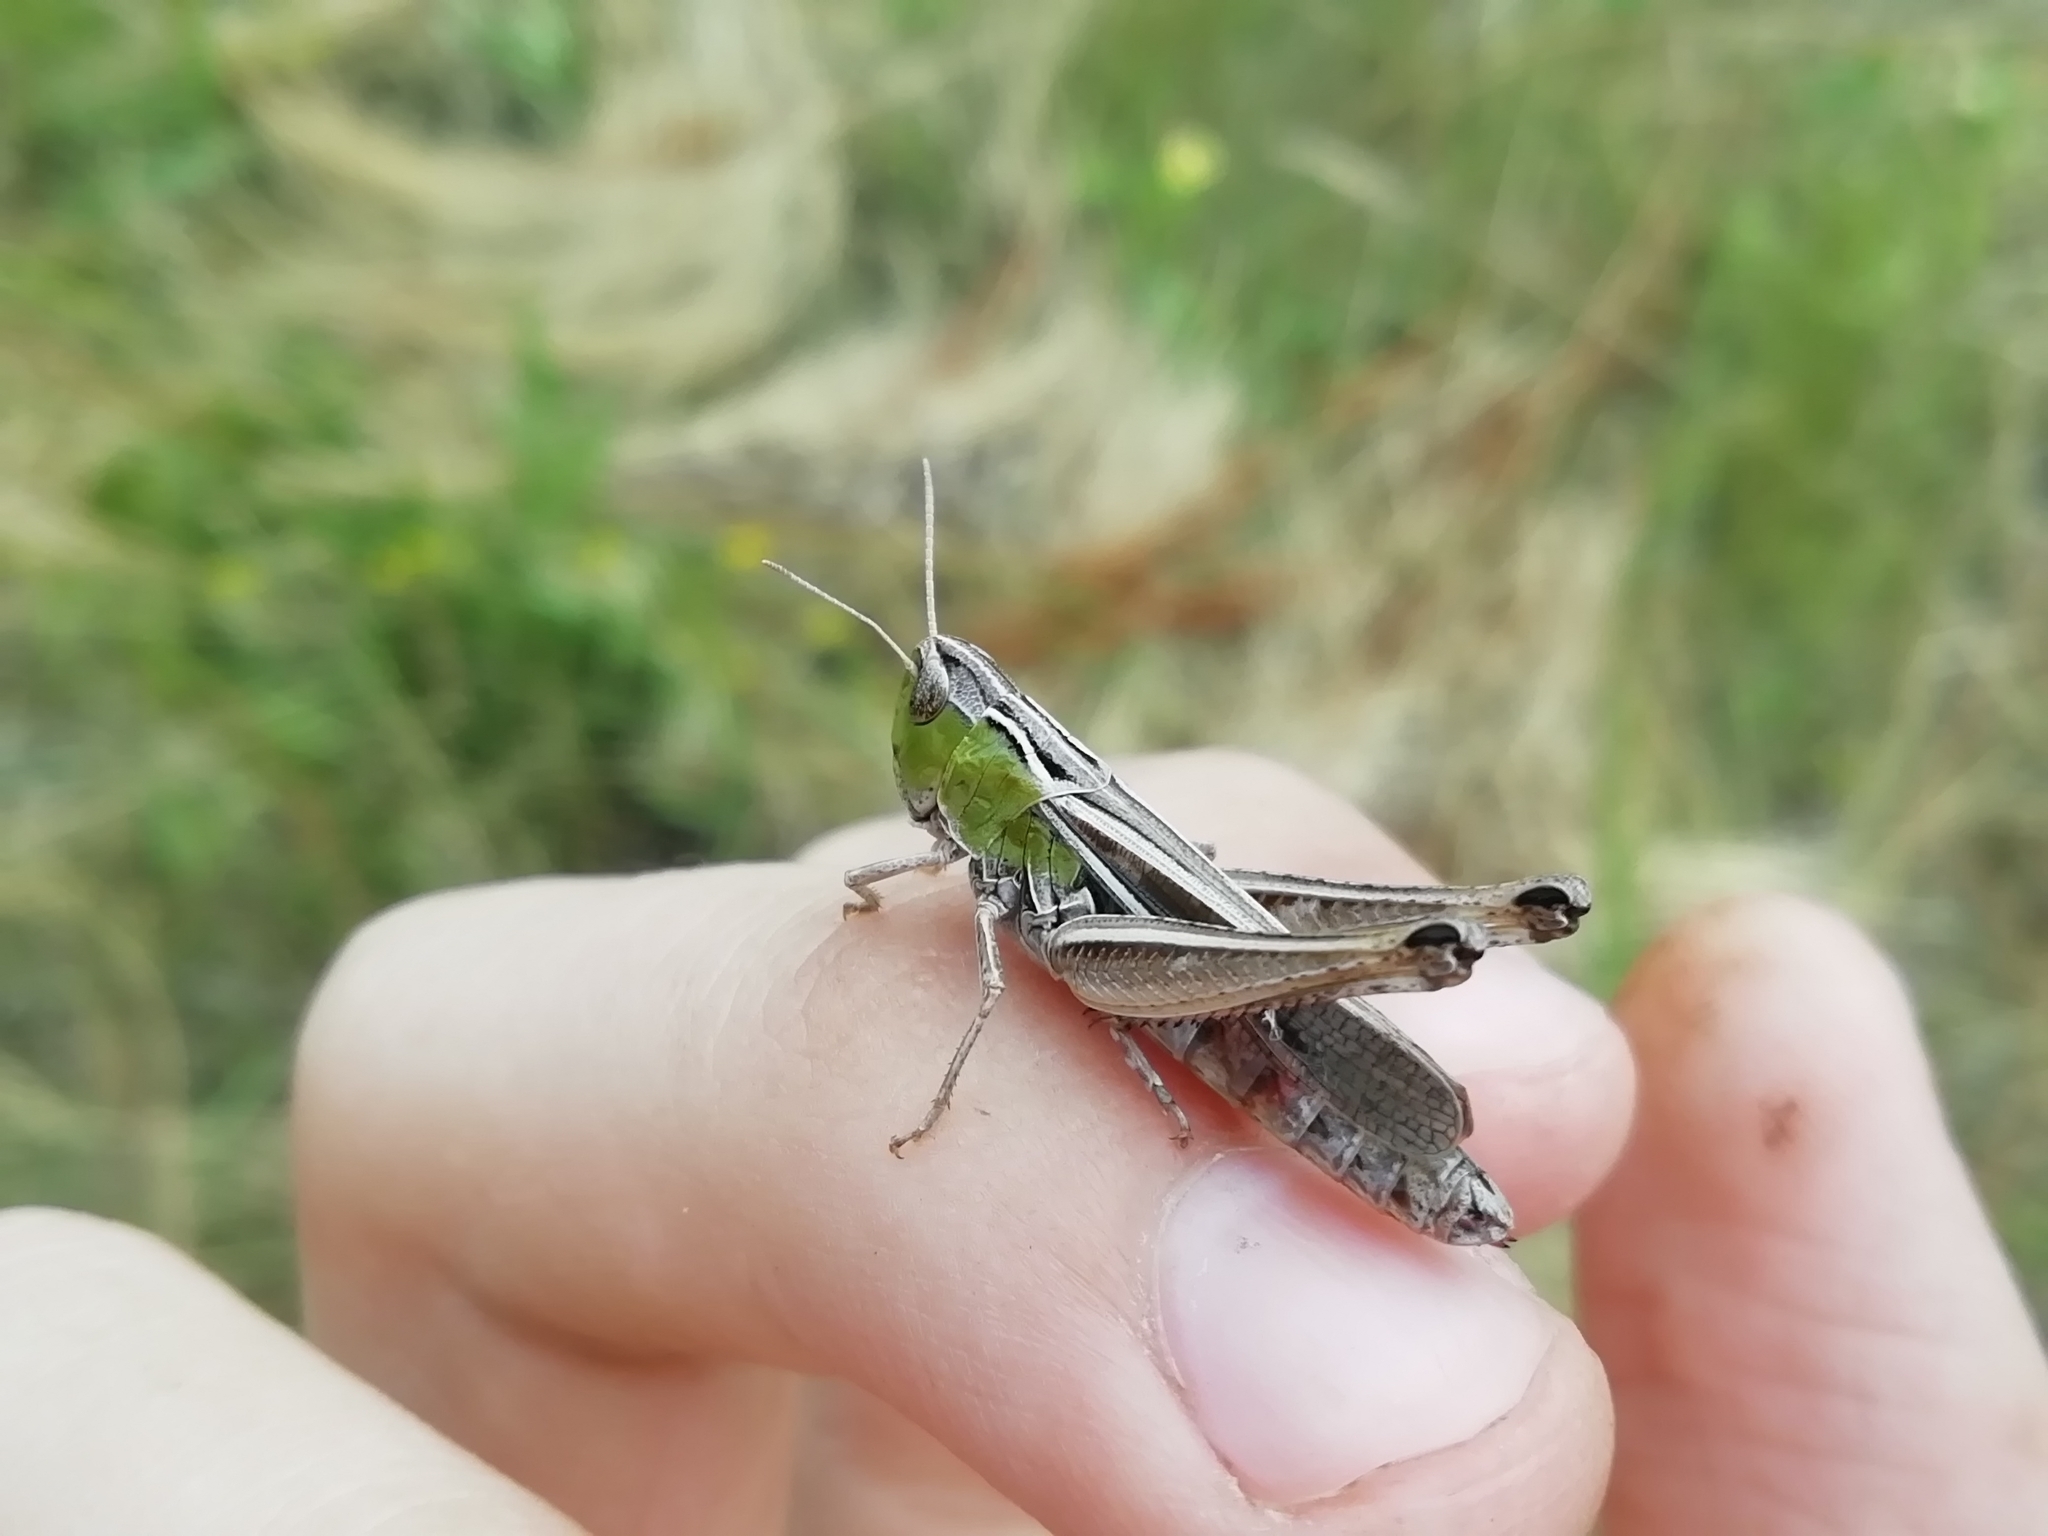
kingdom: Animalia
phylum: Arthropoda
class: Insecta
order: Orthoptera
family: Acrididae
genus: Stenobothrus
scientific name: Stenobothrus lineatus
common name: Stripe-winged grasshopper
